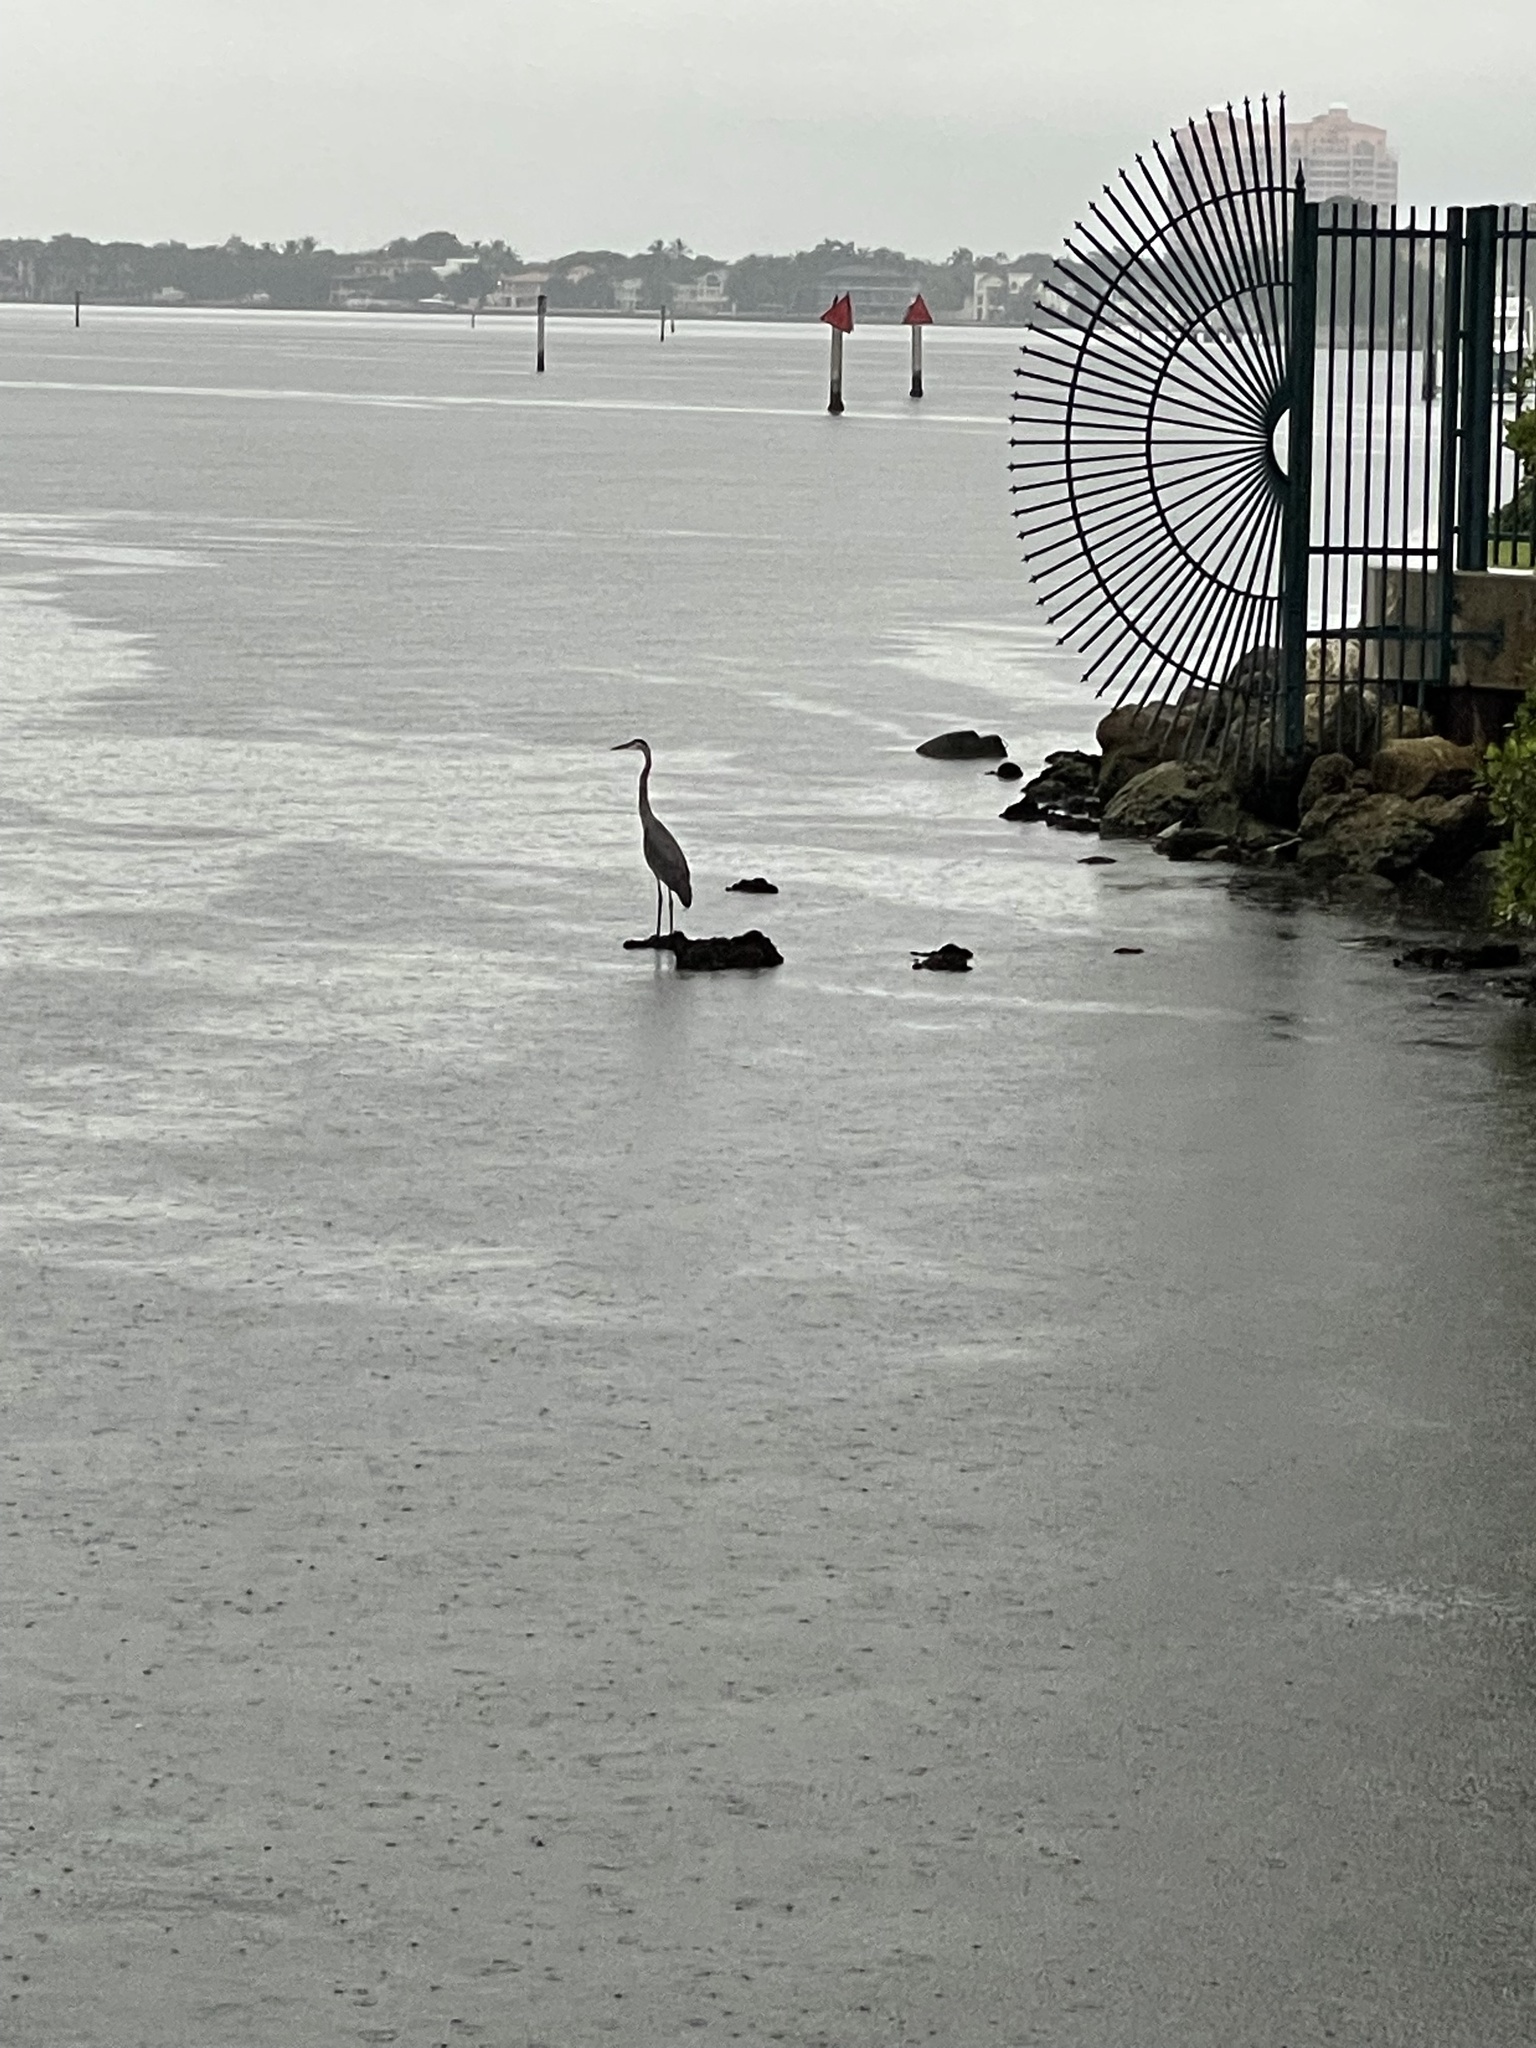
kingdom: Animalia
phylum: Chordata
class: Aves
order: Pelecaniformes
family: Ardeidae
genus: Ardea
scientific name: Ardea herodias
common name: Great blue heron
